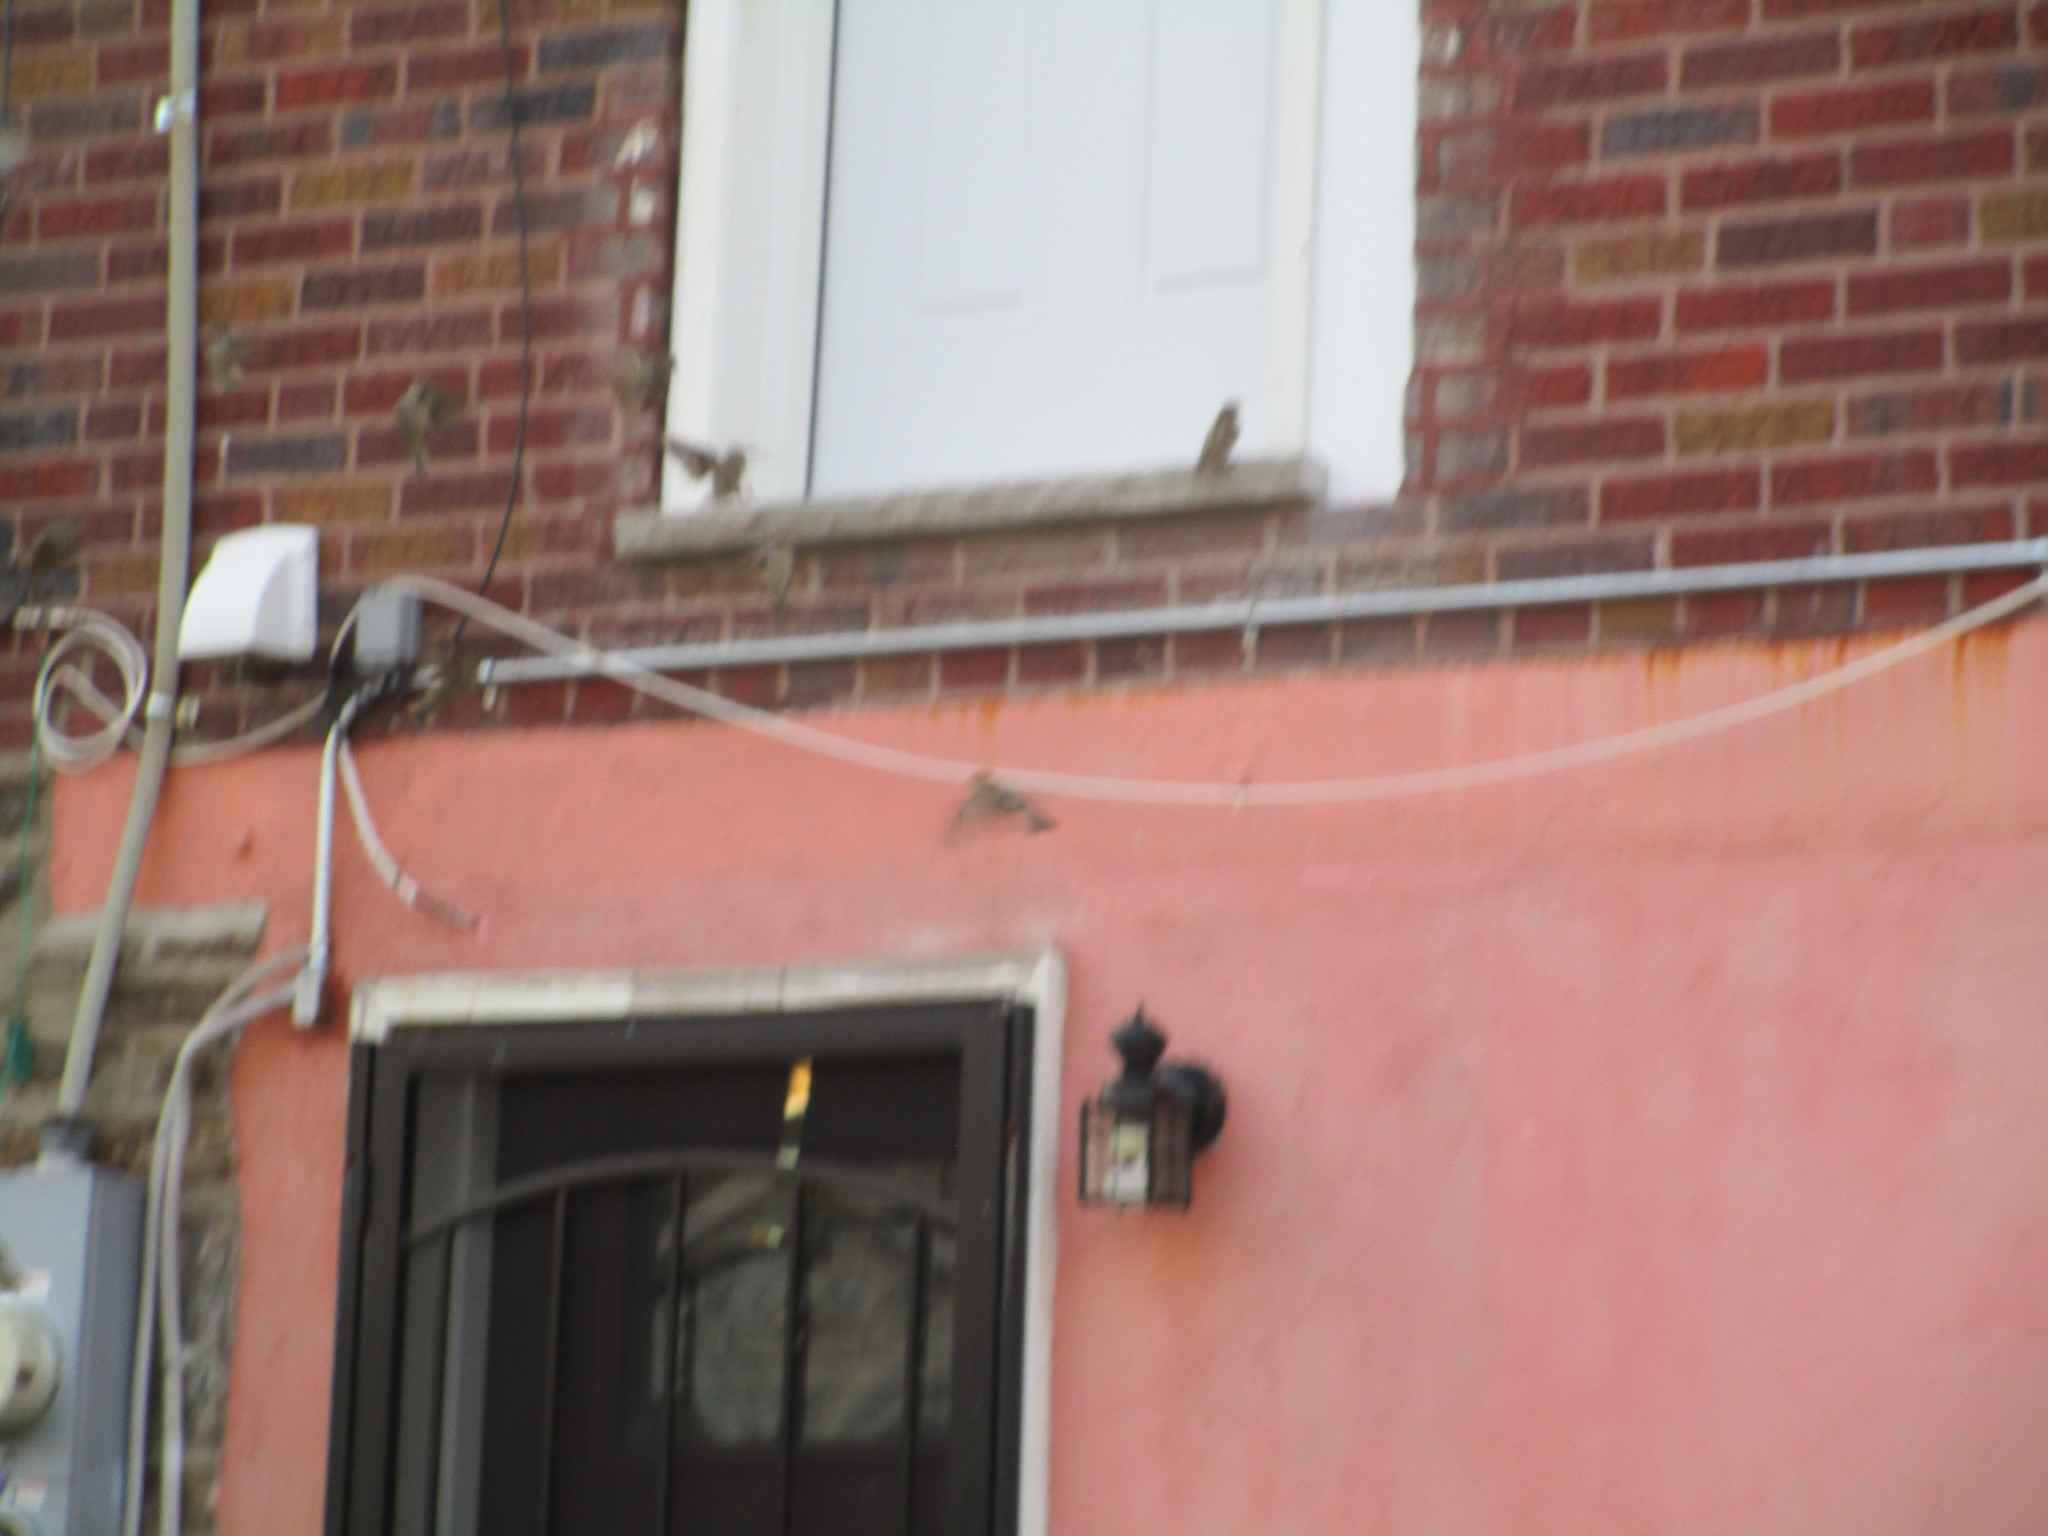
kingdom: Animalia
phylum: Chordata
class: Aves
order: Passeriformes
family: Passeridae
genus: Passer
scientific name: Passer domesticus
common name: House sparrow
